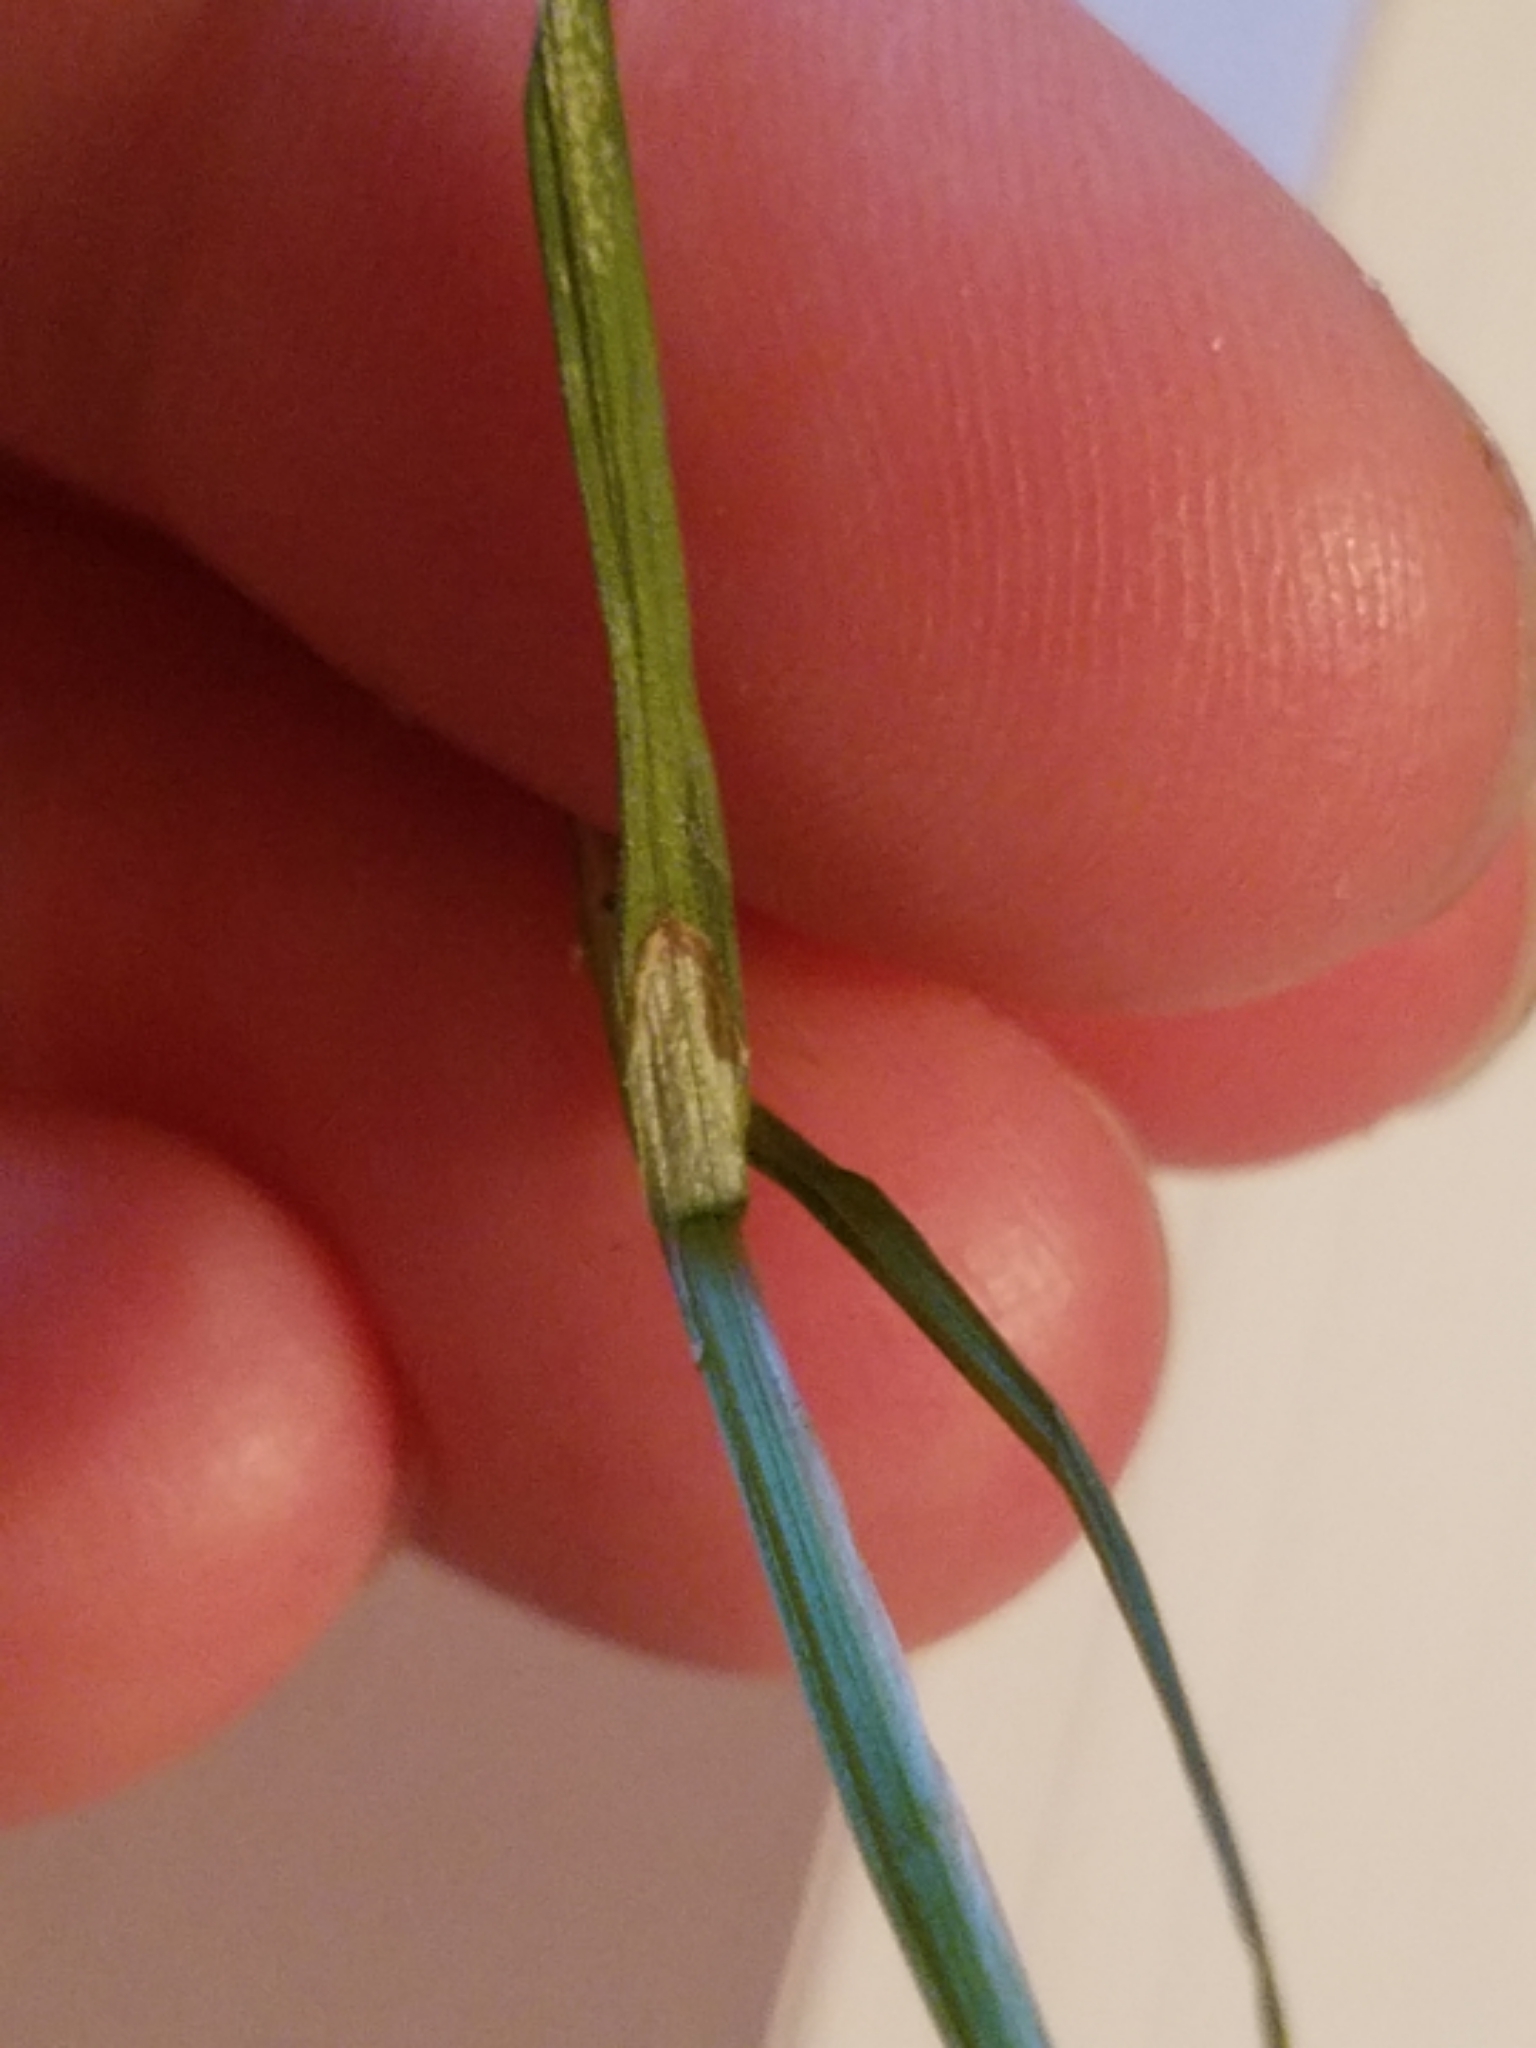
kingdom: Plantae
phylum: Tracheophyta
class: Liliopsida
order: Poales
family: Cyperaceae
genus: Carex
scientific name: Carex communis
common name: Colonial oak sedge
